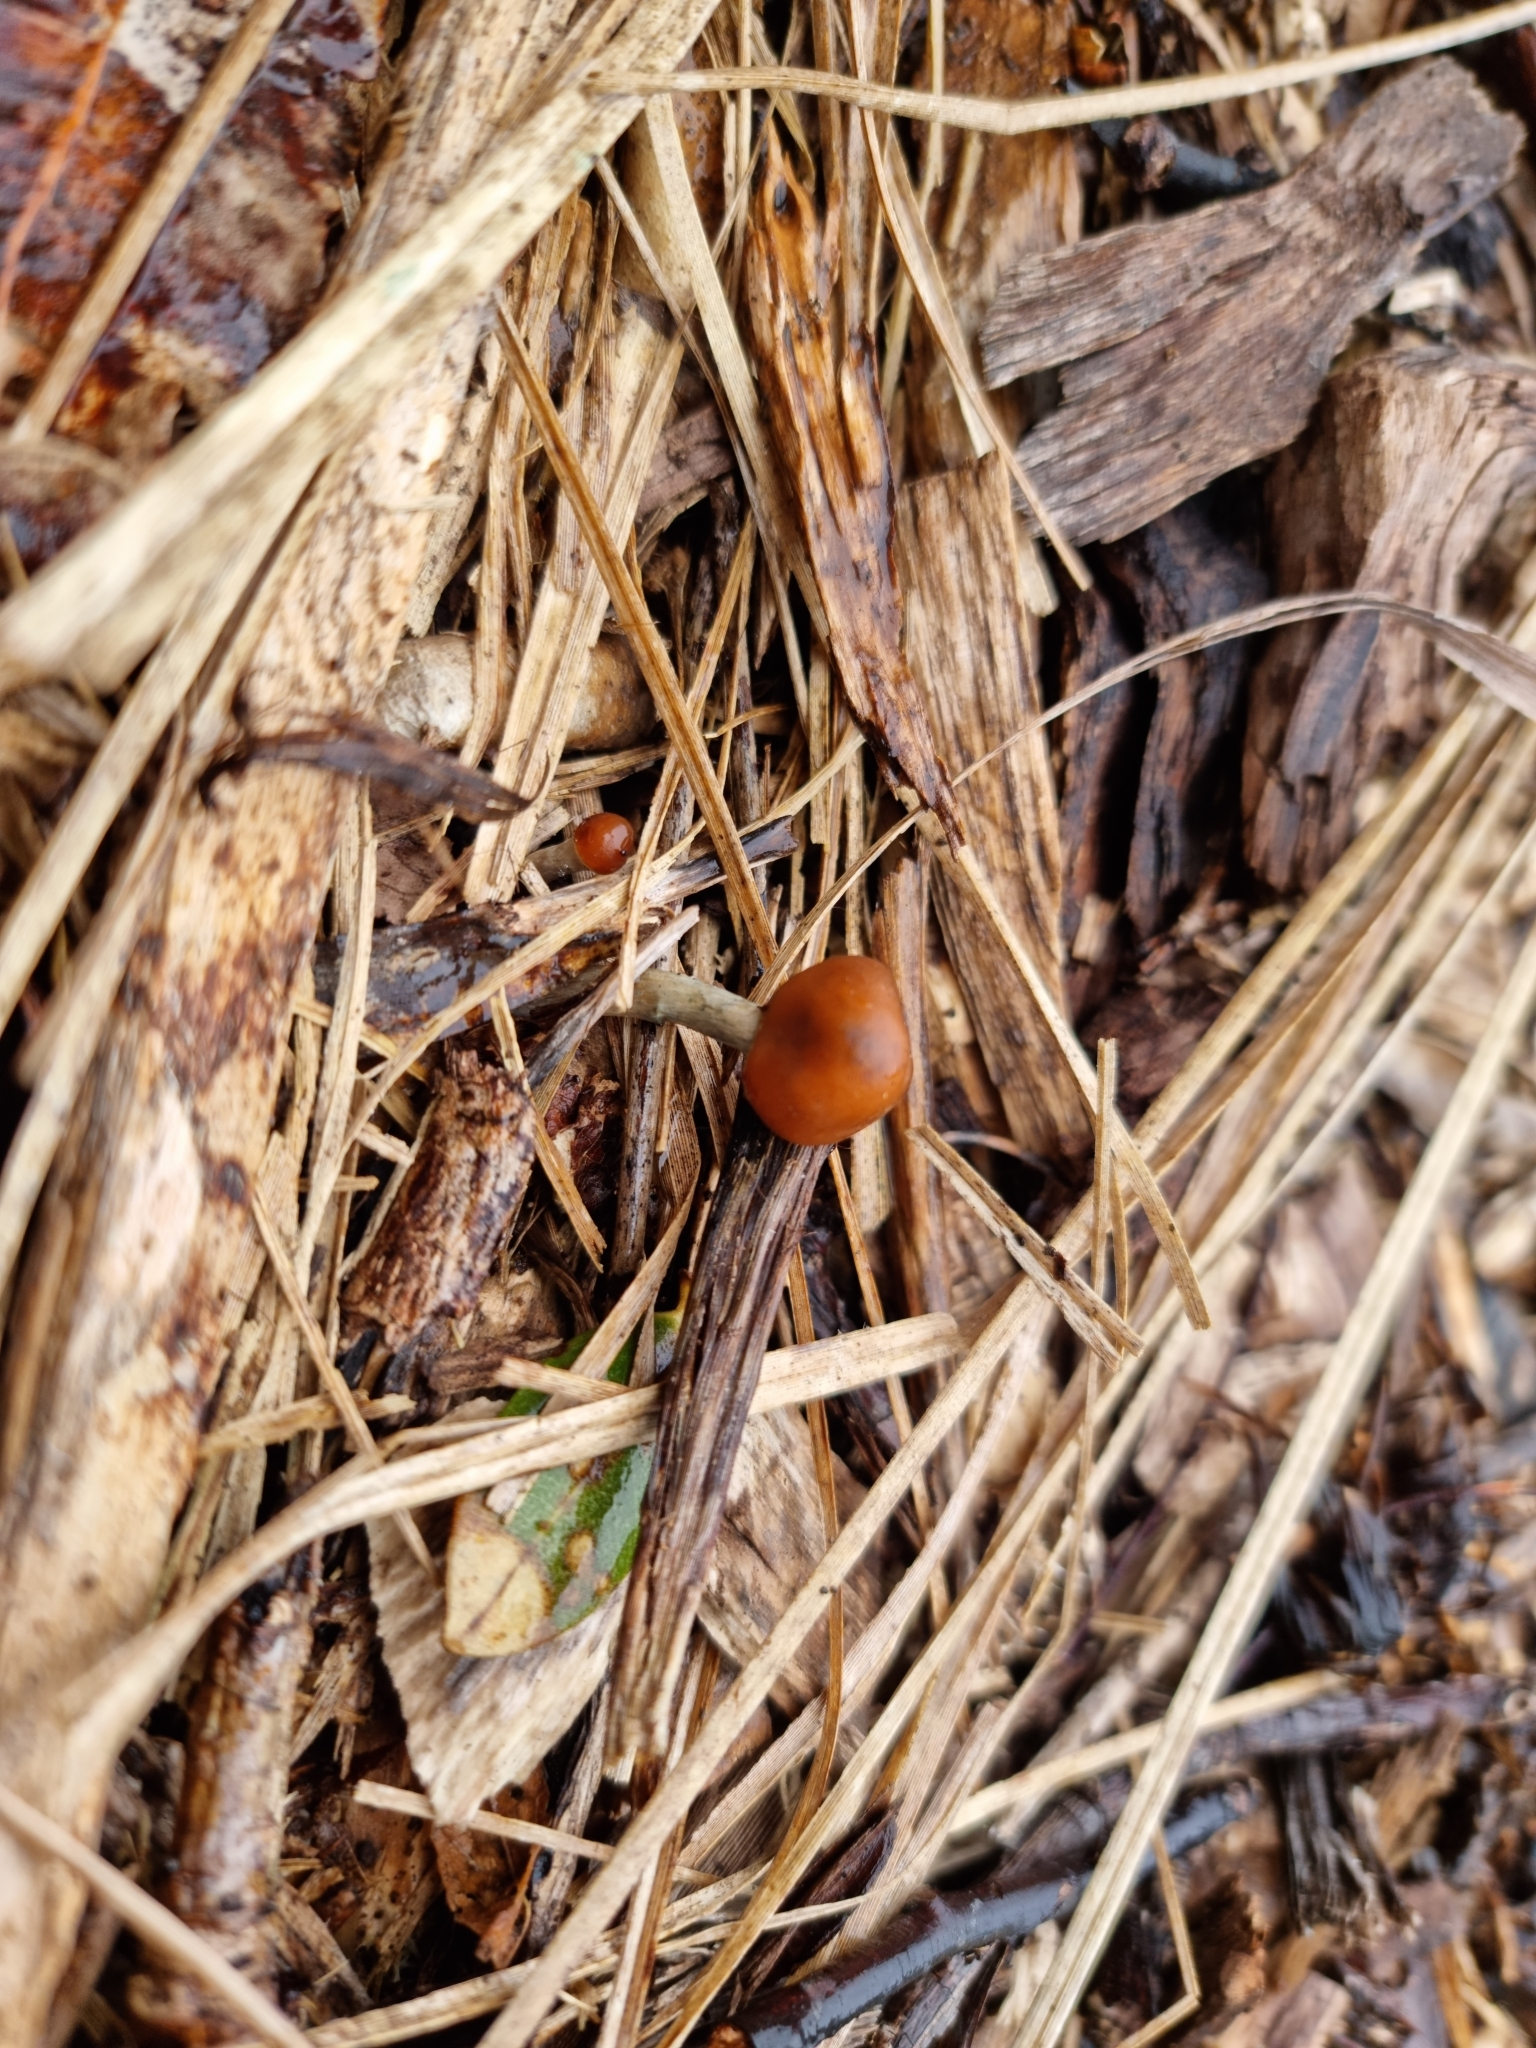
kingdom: Fungi
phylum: Basidiomycota
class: Agaricomycetes
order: Agaricales
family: Hymenogastraceae
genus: Psilocybe
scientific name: Psilocybe subaeruginosa
